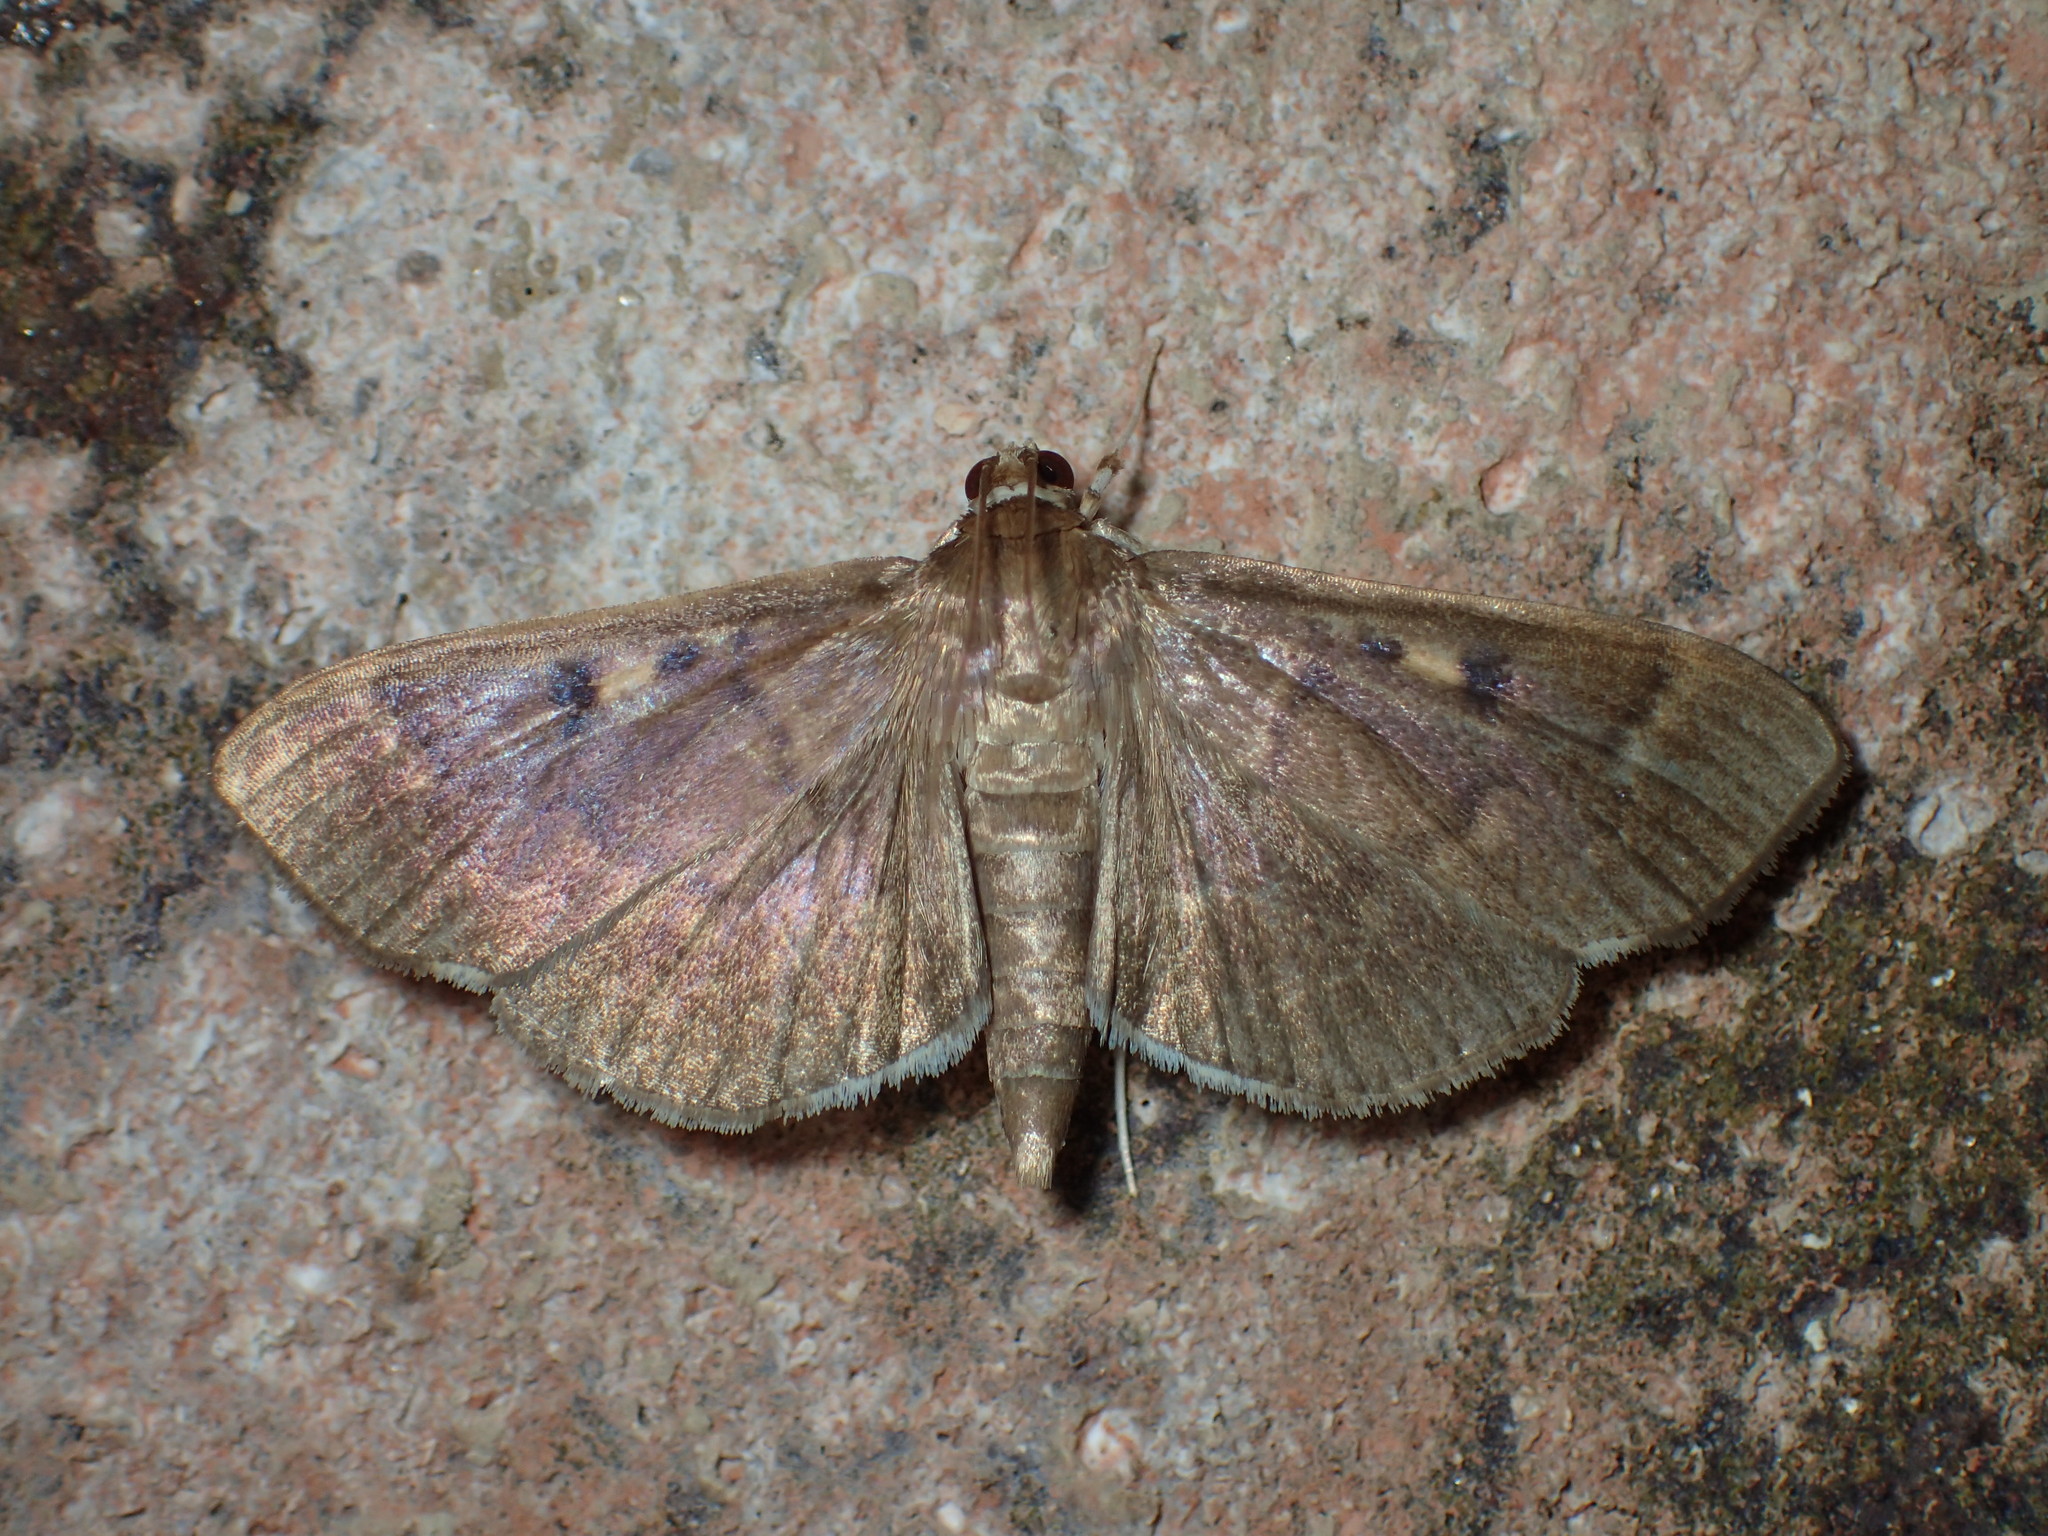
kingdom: Animalia
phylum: Arthropoda
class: Insecta
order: Lepidoptera
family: Crambidae
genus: Herpetogramma
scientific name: Herpetogramma sphingealis
